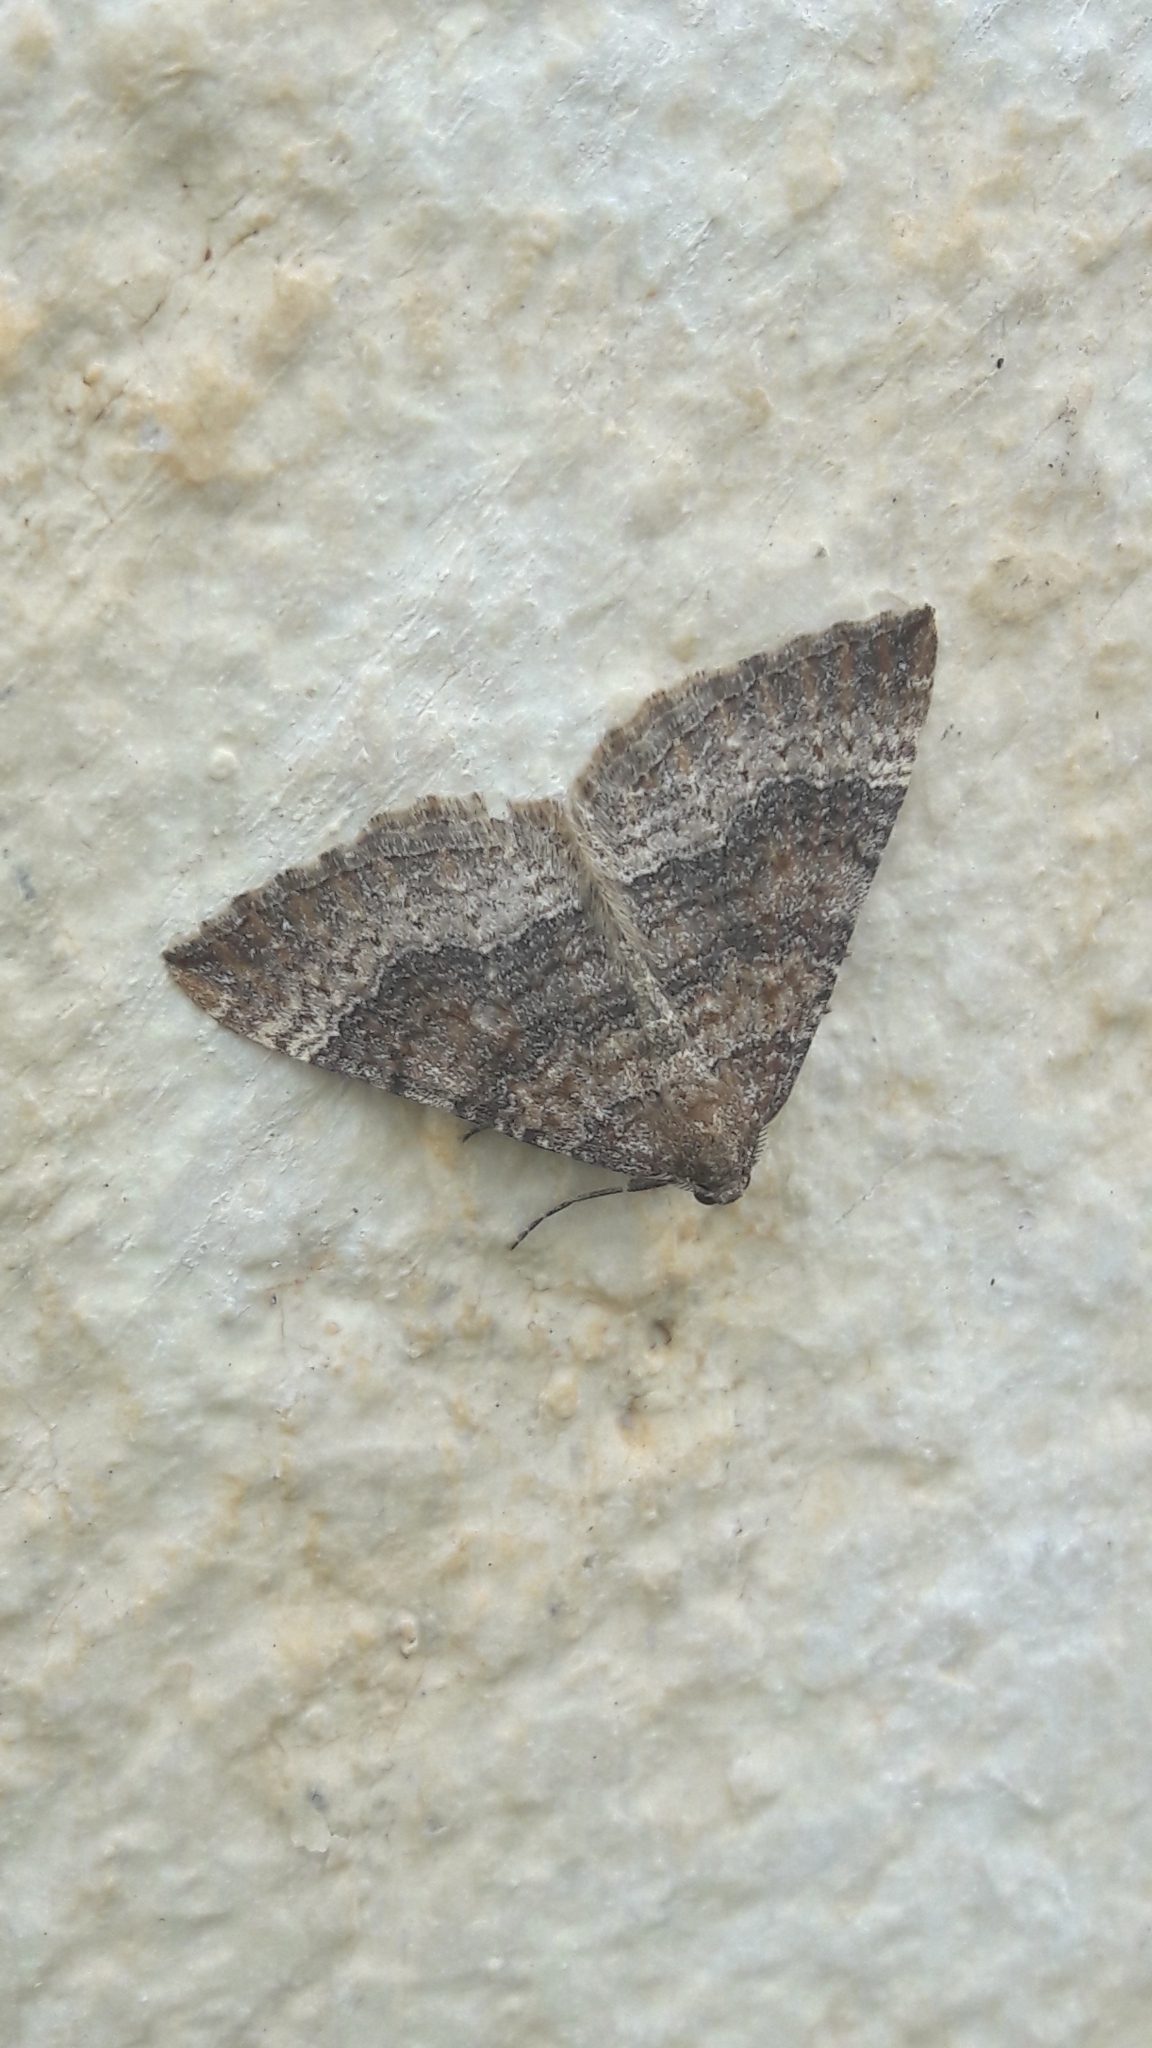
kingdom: Animalia
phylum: Arthropoda
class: Insecta
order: Lepidoptera
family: Geometridae
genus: Larentia
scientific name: Larentia clavaria
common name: Mallow
